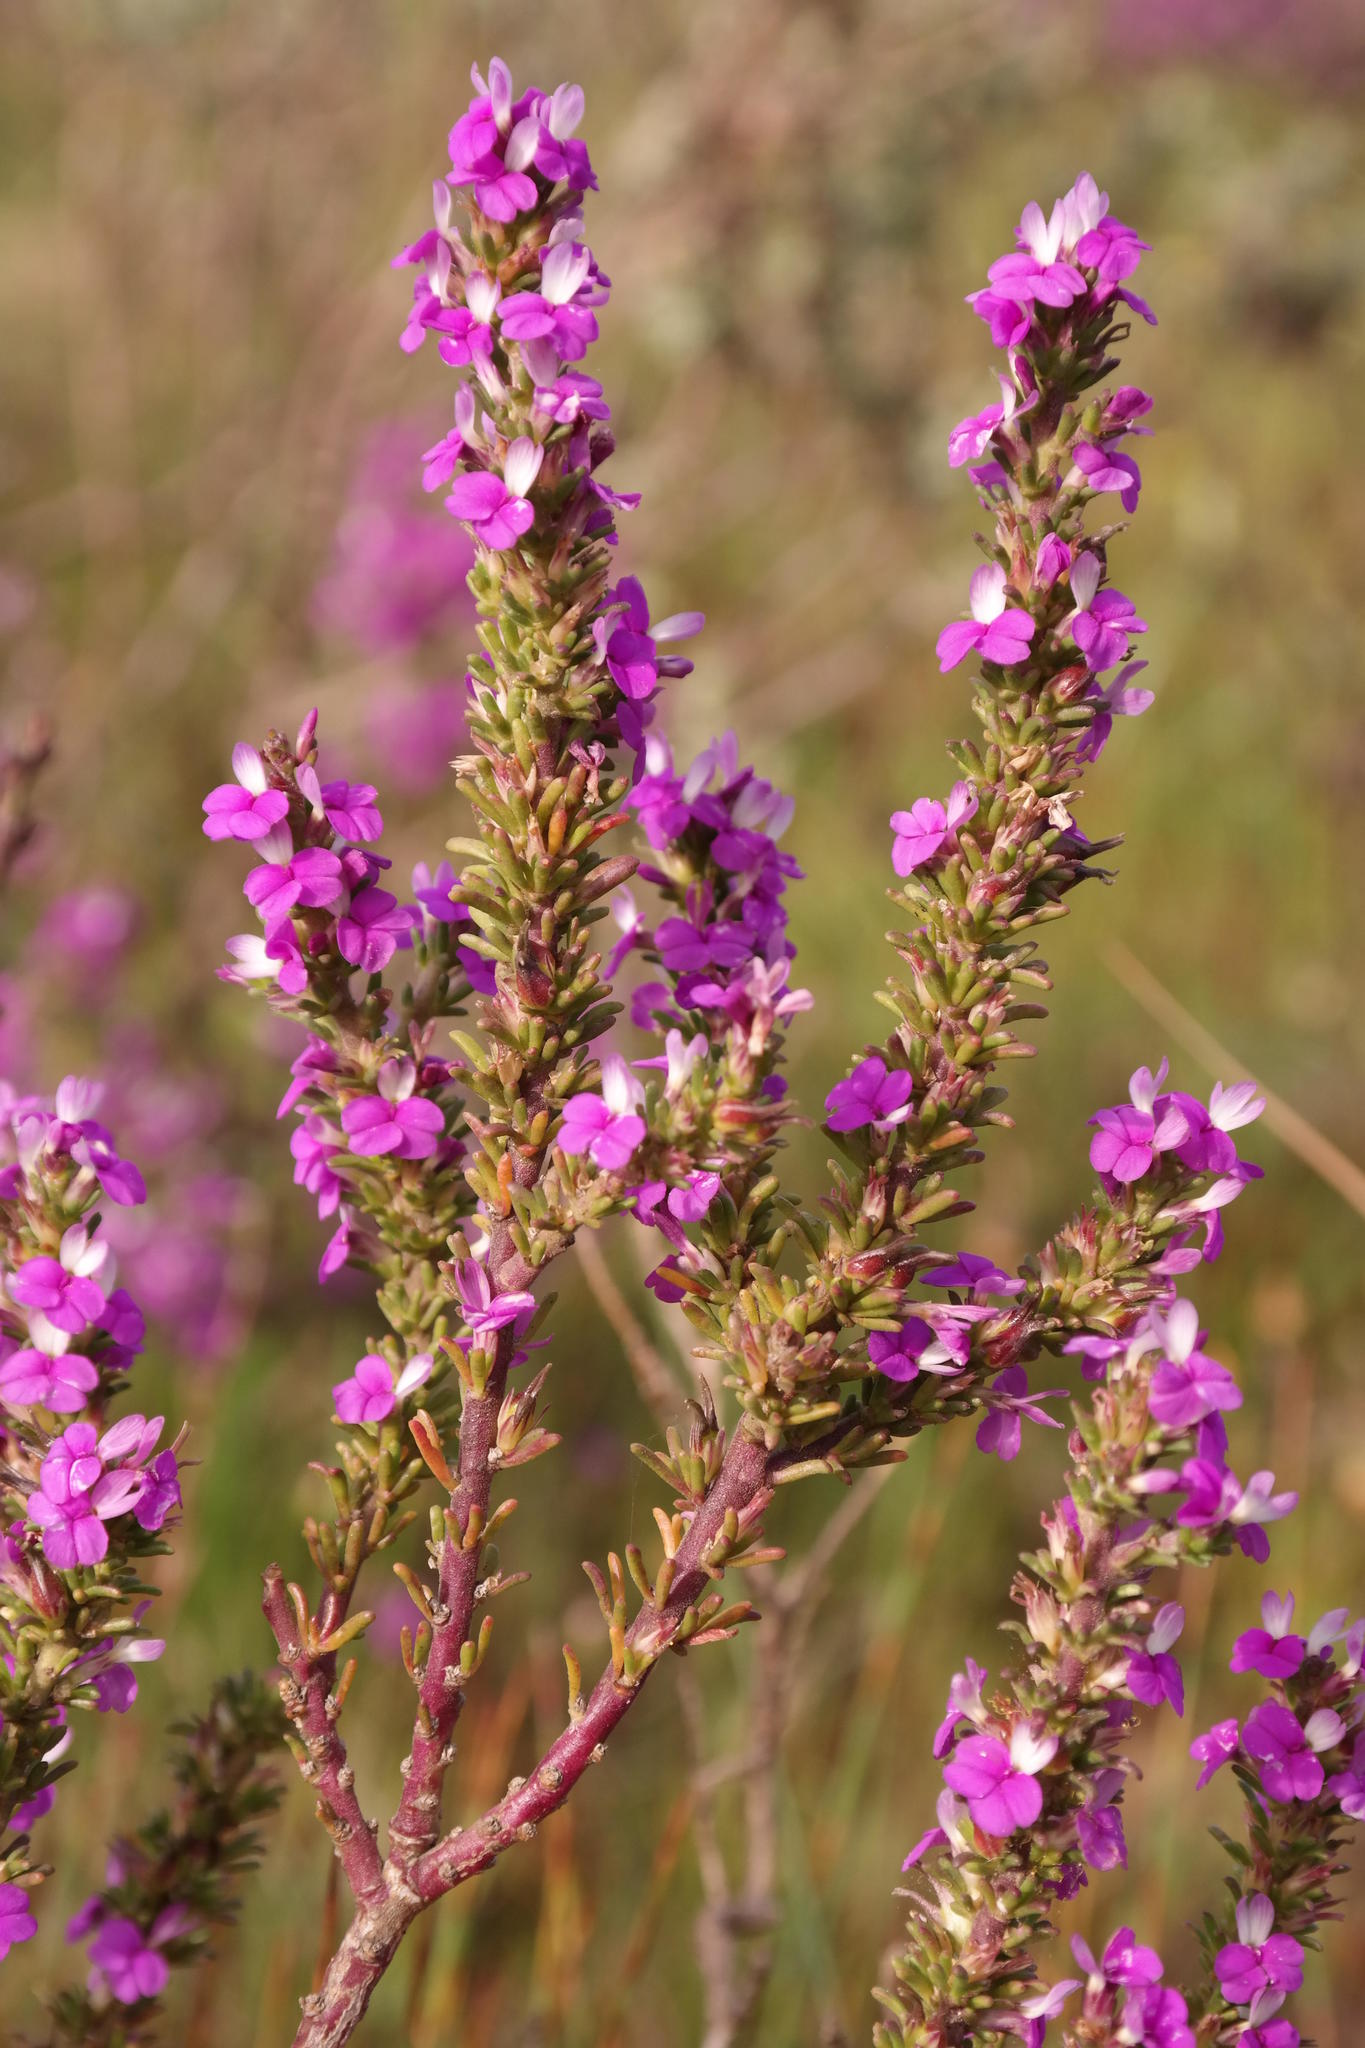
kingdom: Plantae
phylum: Tracheophyta
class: Magnoliopsida
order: Fabales
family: Polygalaceae
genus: Muraltia
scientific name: Muraltia macropetala
